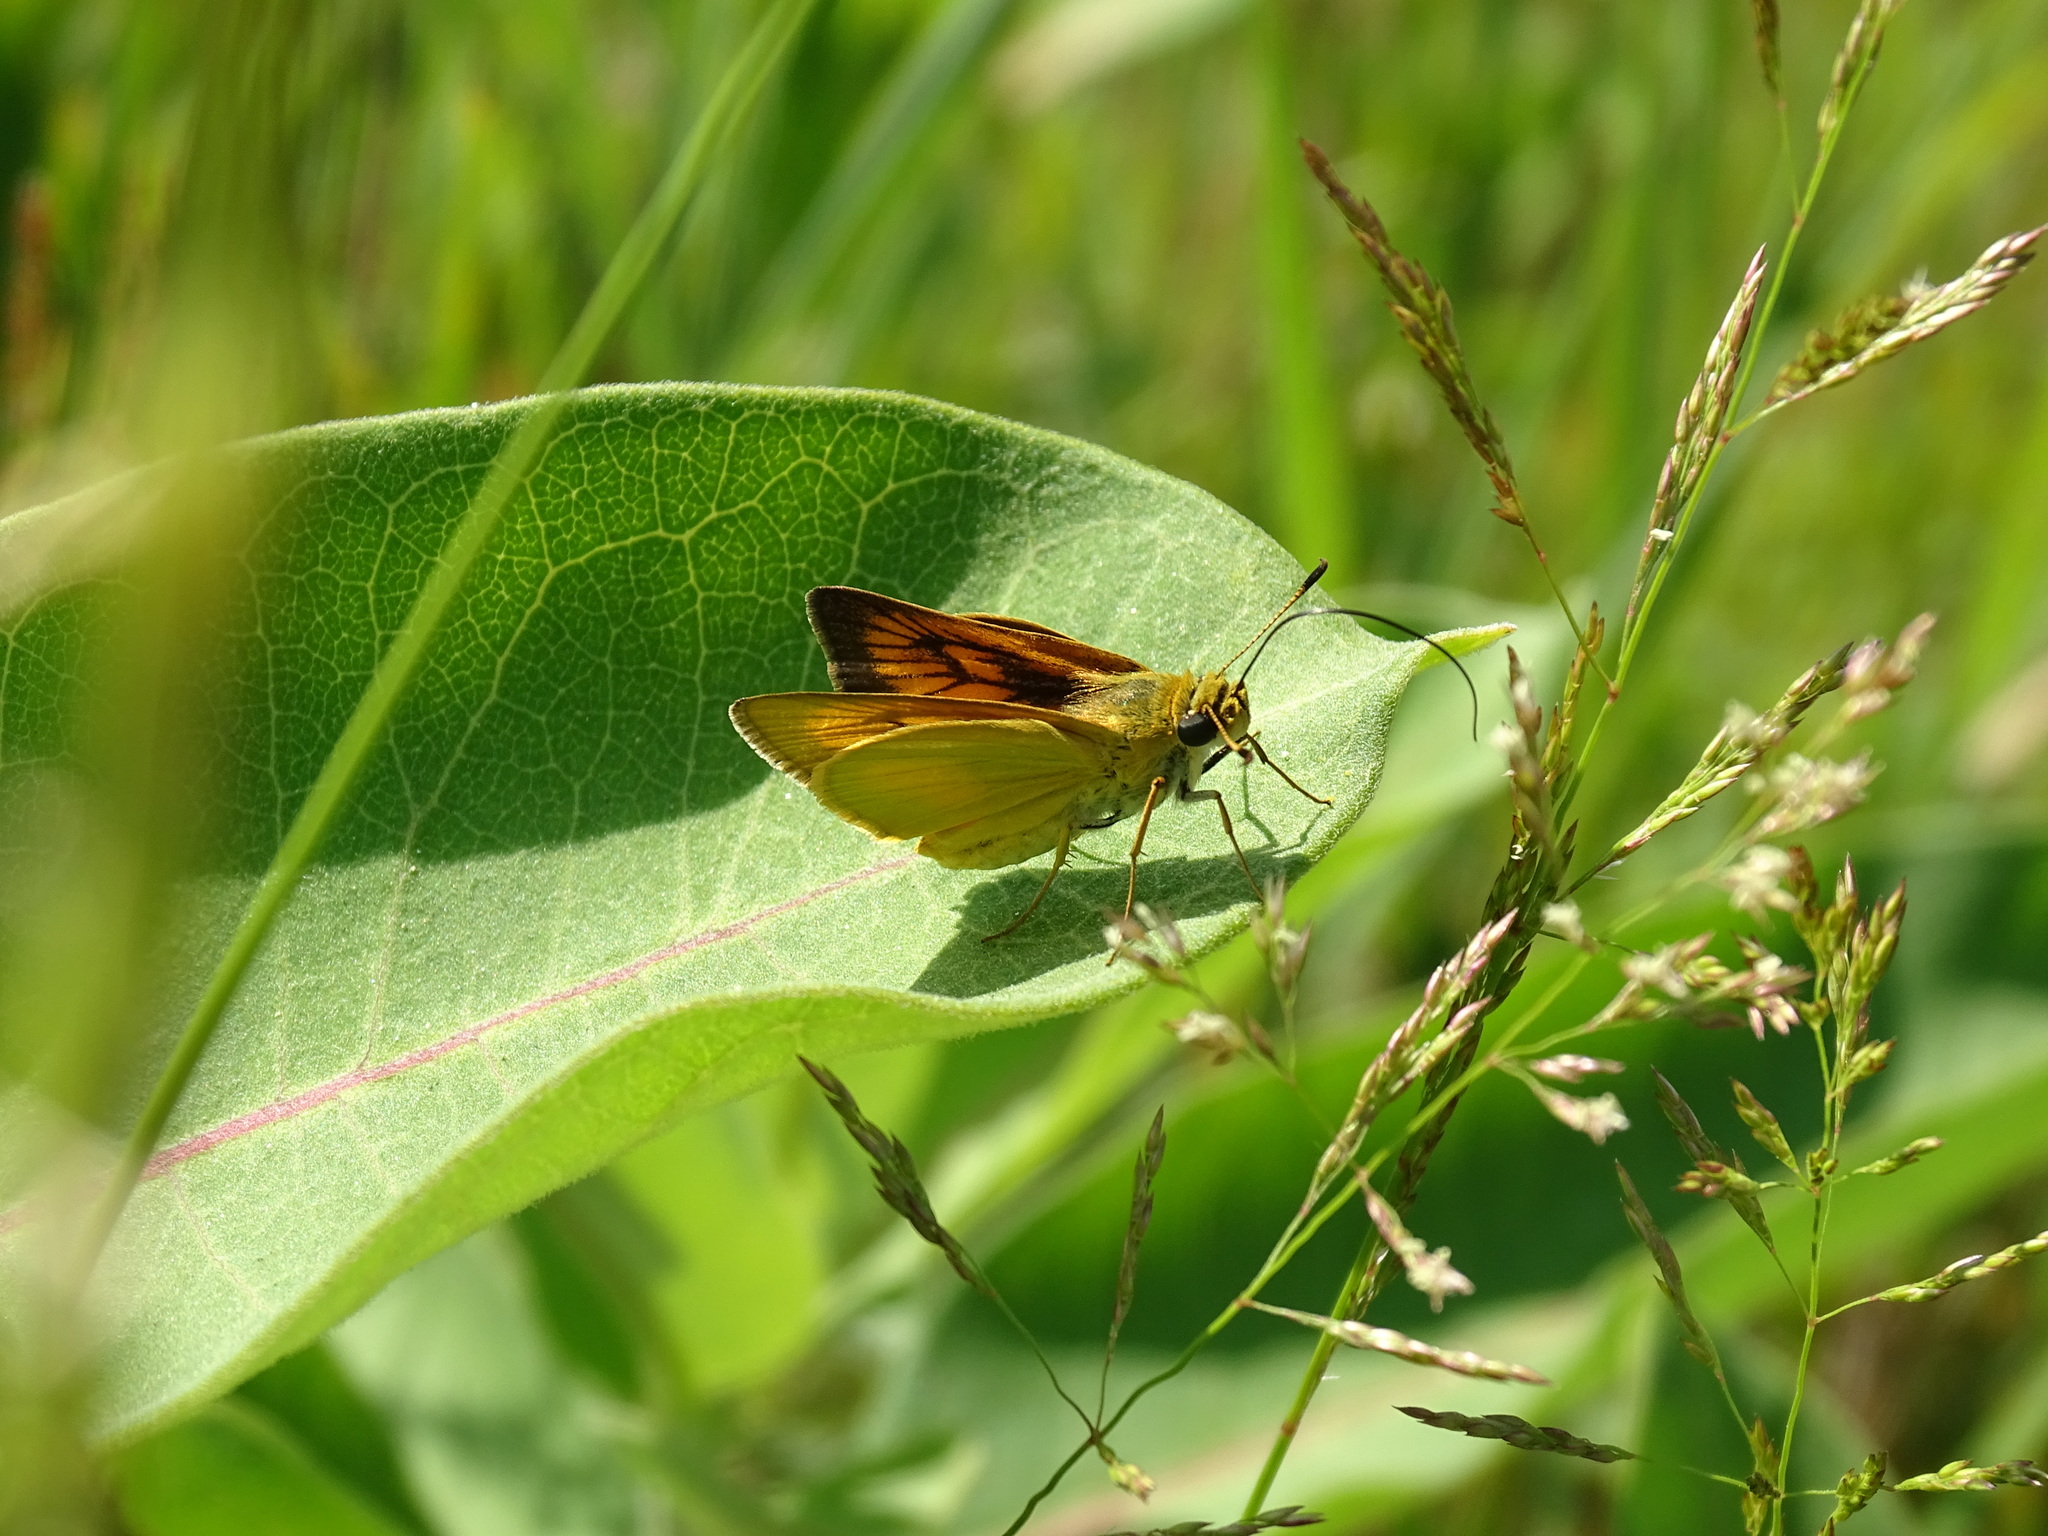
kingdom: Animalia
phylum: Arthropoda
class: Insecta
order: Lepidoptera
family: Hesperiidae
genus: Atrytone
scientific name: Atrytone delaware
